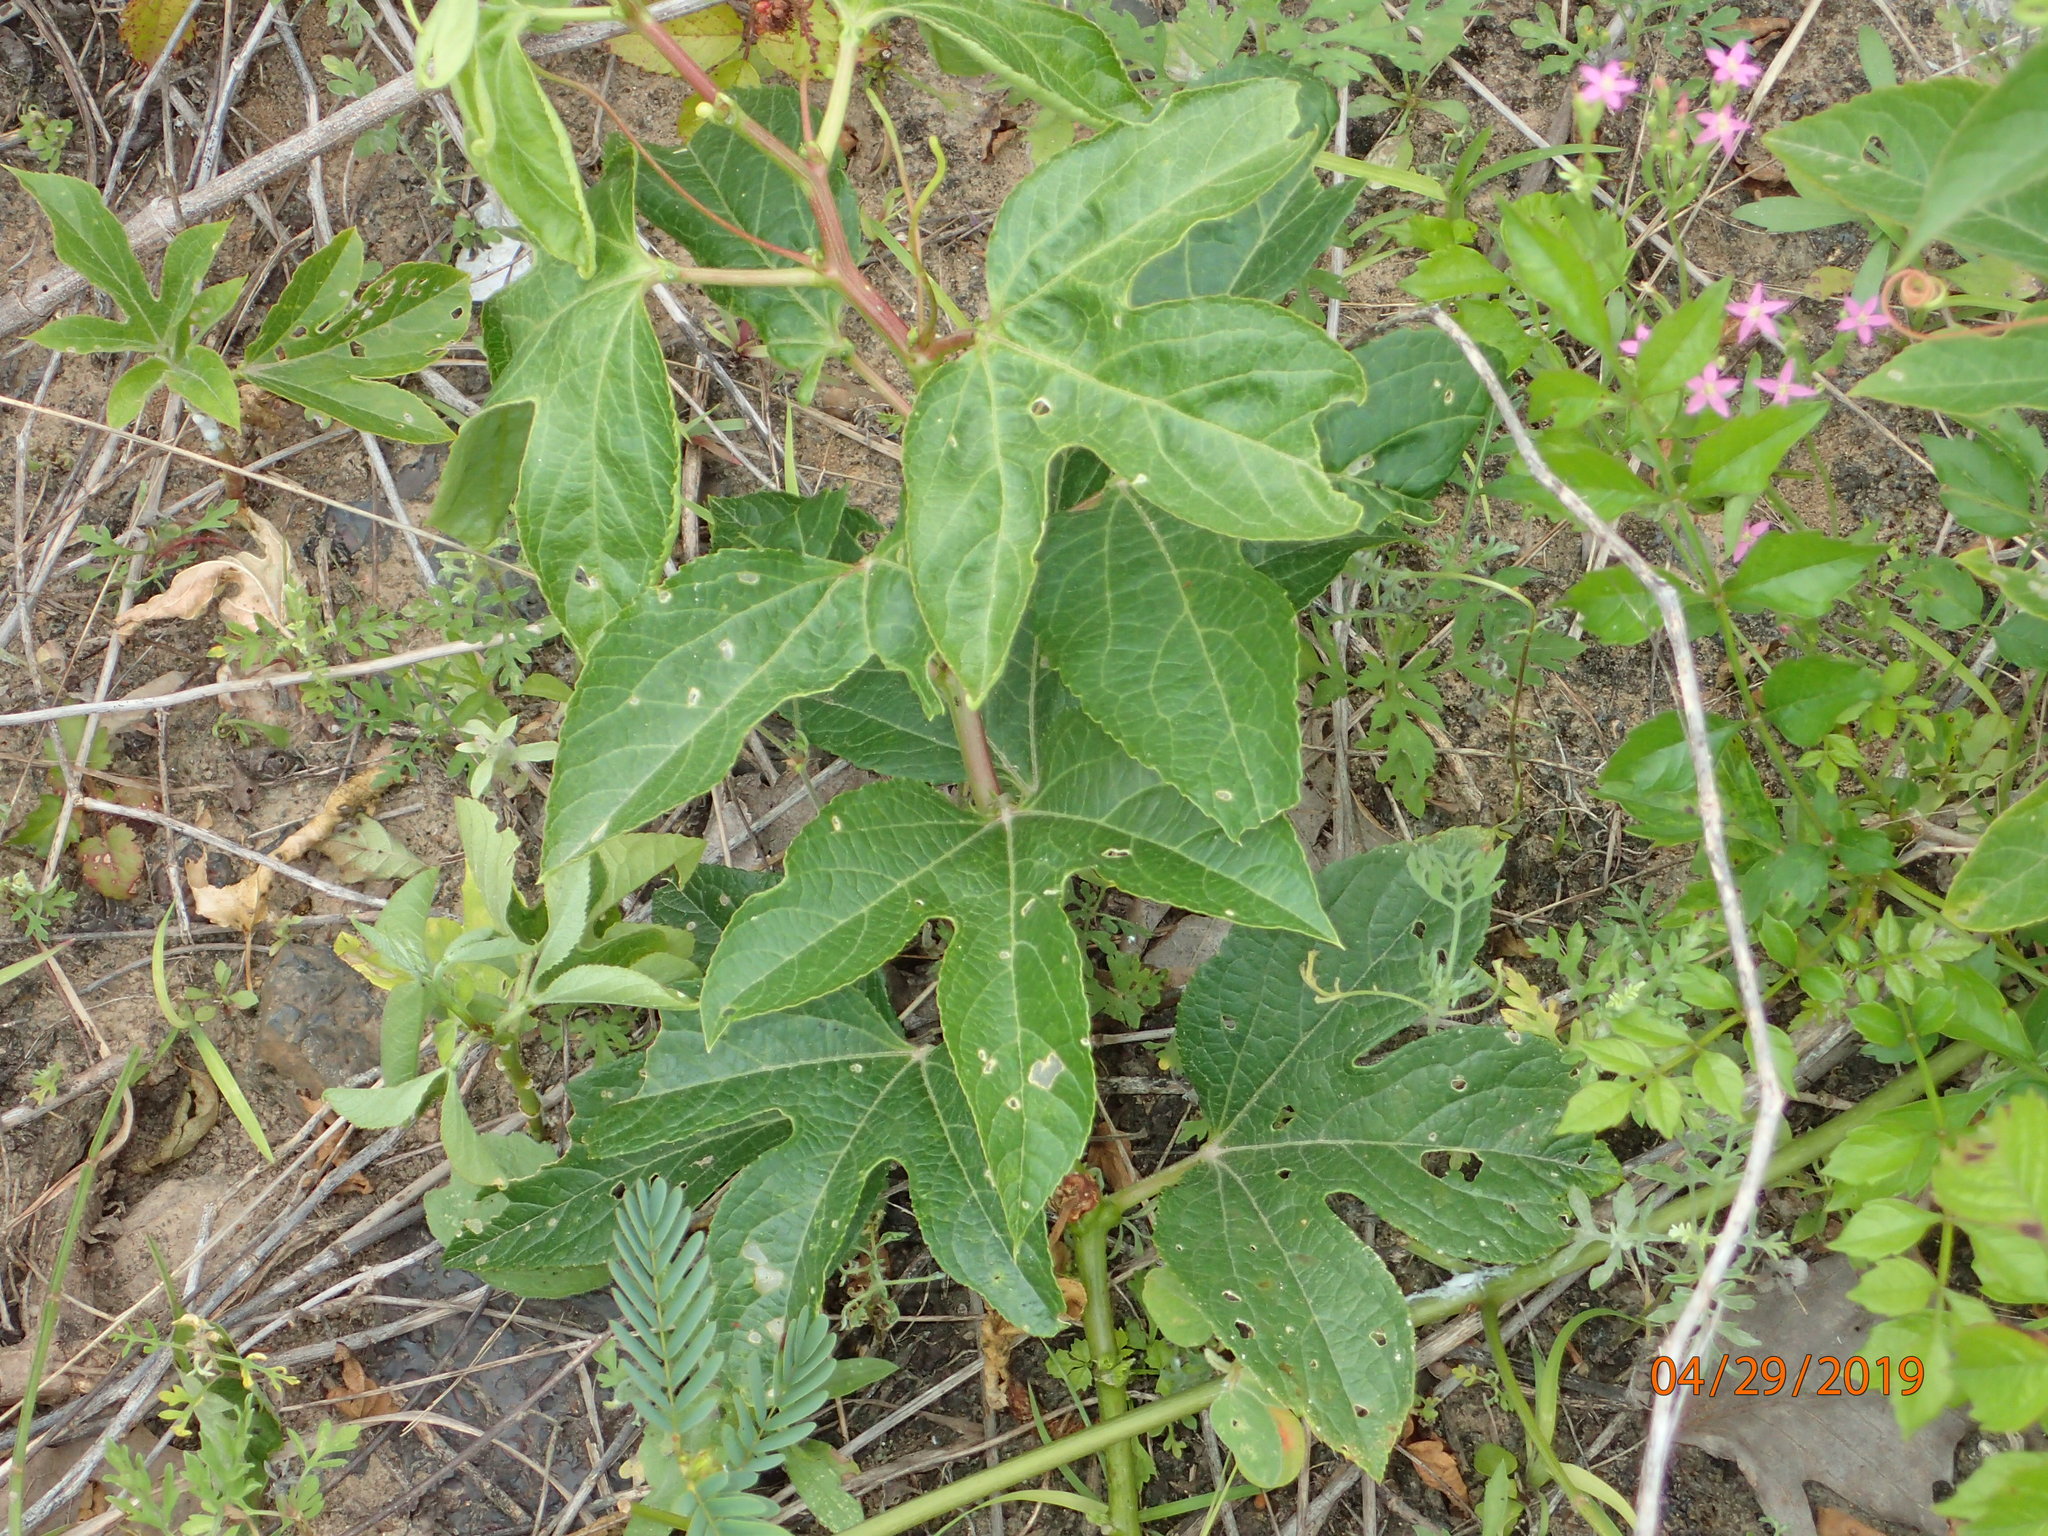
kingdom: Plantae
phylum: Tracheophyta
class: Magnoliopsida
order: Malpighiales
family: Passifloraceae
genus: Passiflora
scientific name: Passiflora incarnata
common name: Apricot-vine
